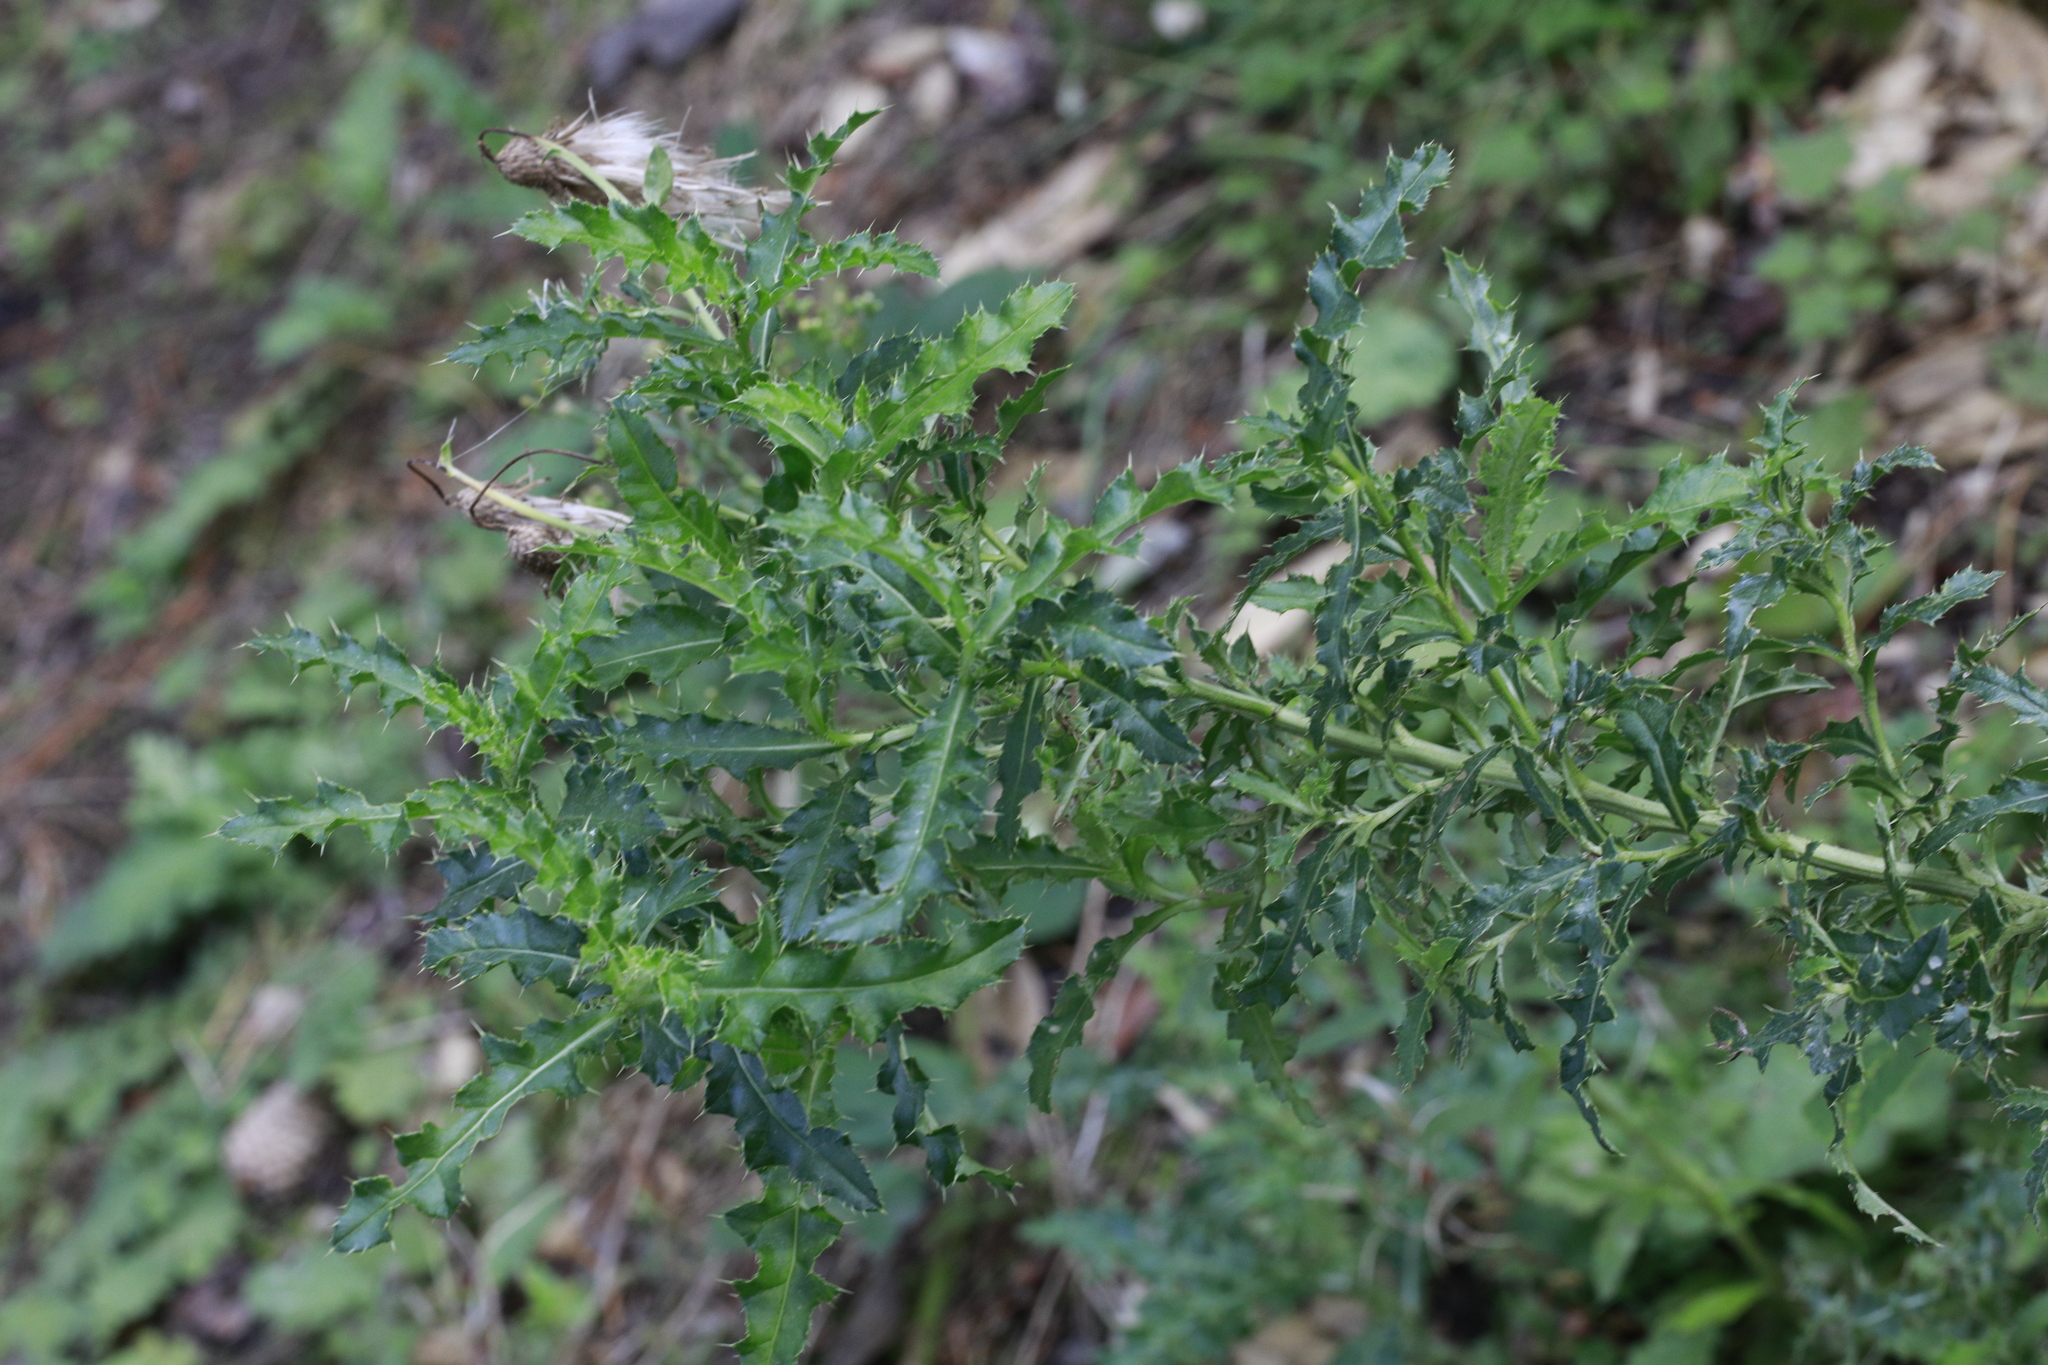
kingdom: Plantae
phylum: Tracheophyta
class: Magnoliopsida
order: Asterales
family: Asteraceae
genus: Cirsium
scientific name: Cirsium arvense
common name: Creeping thistle
